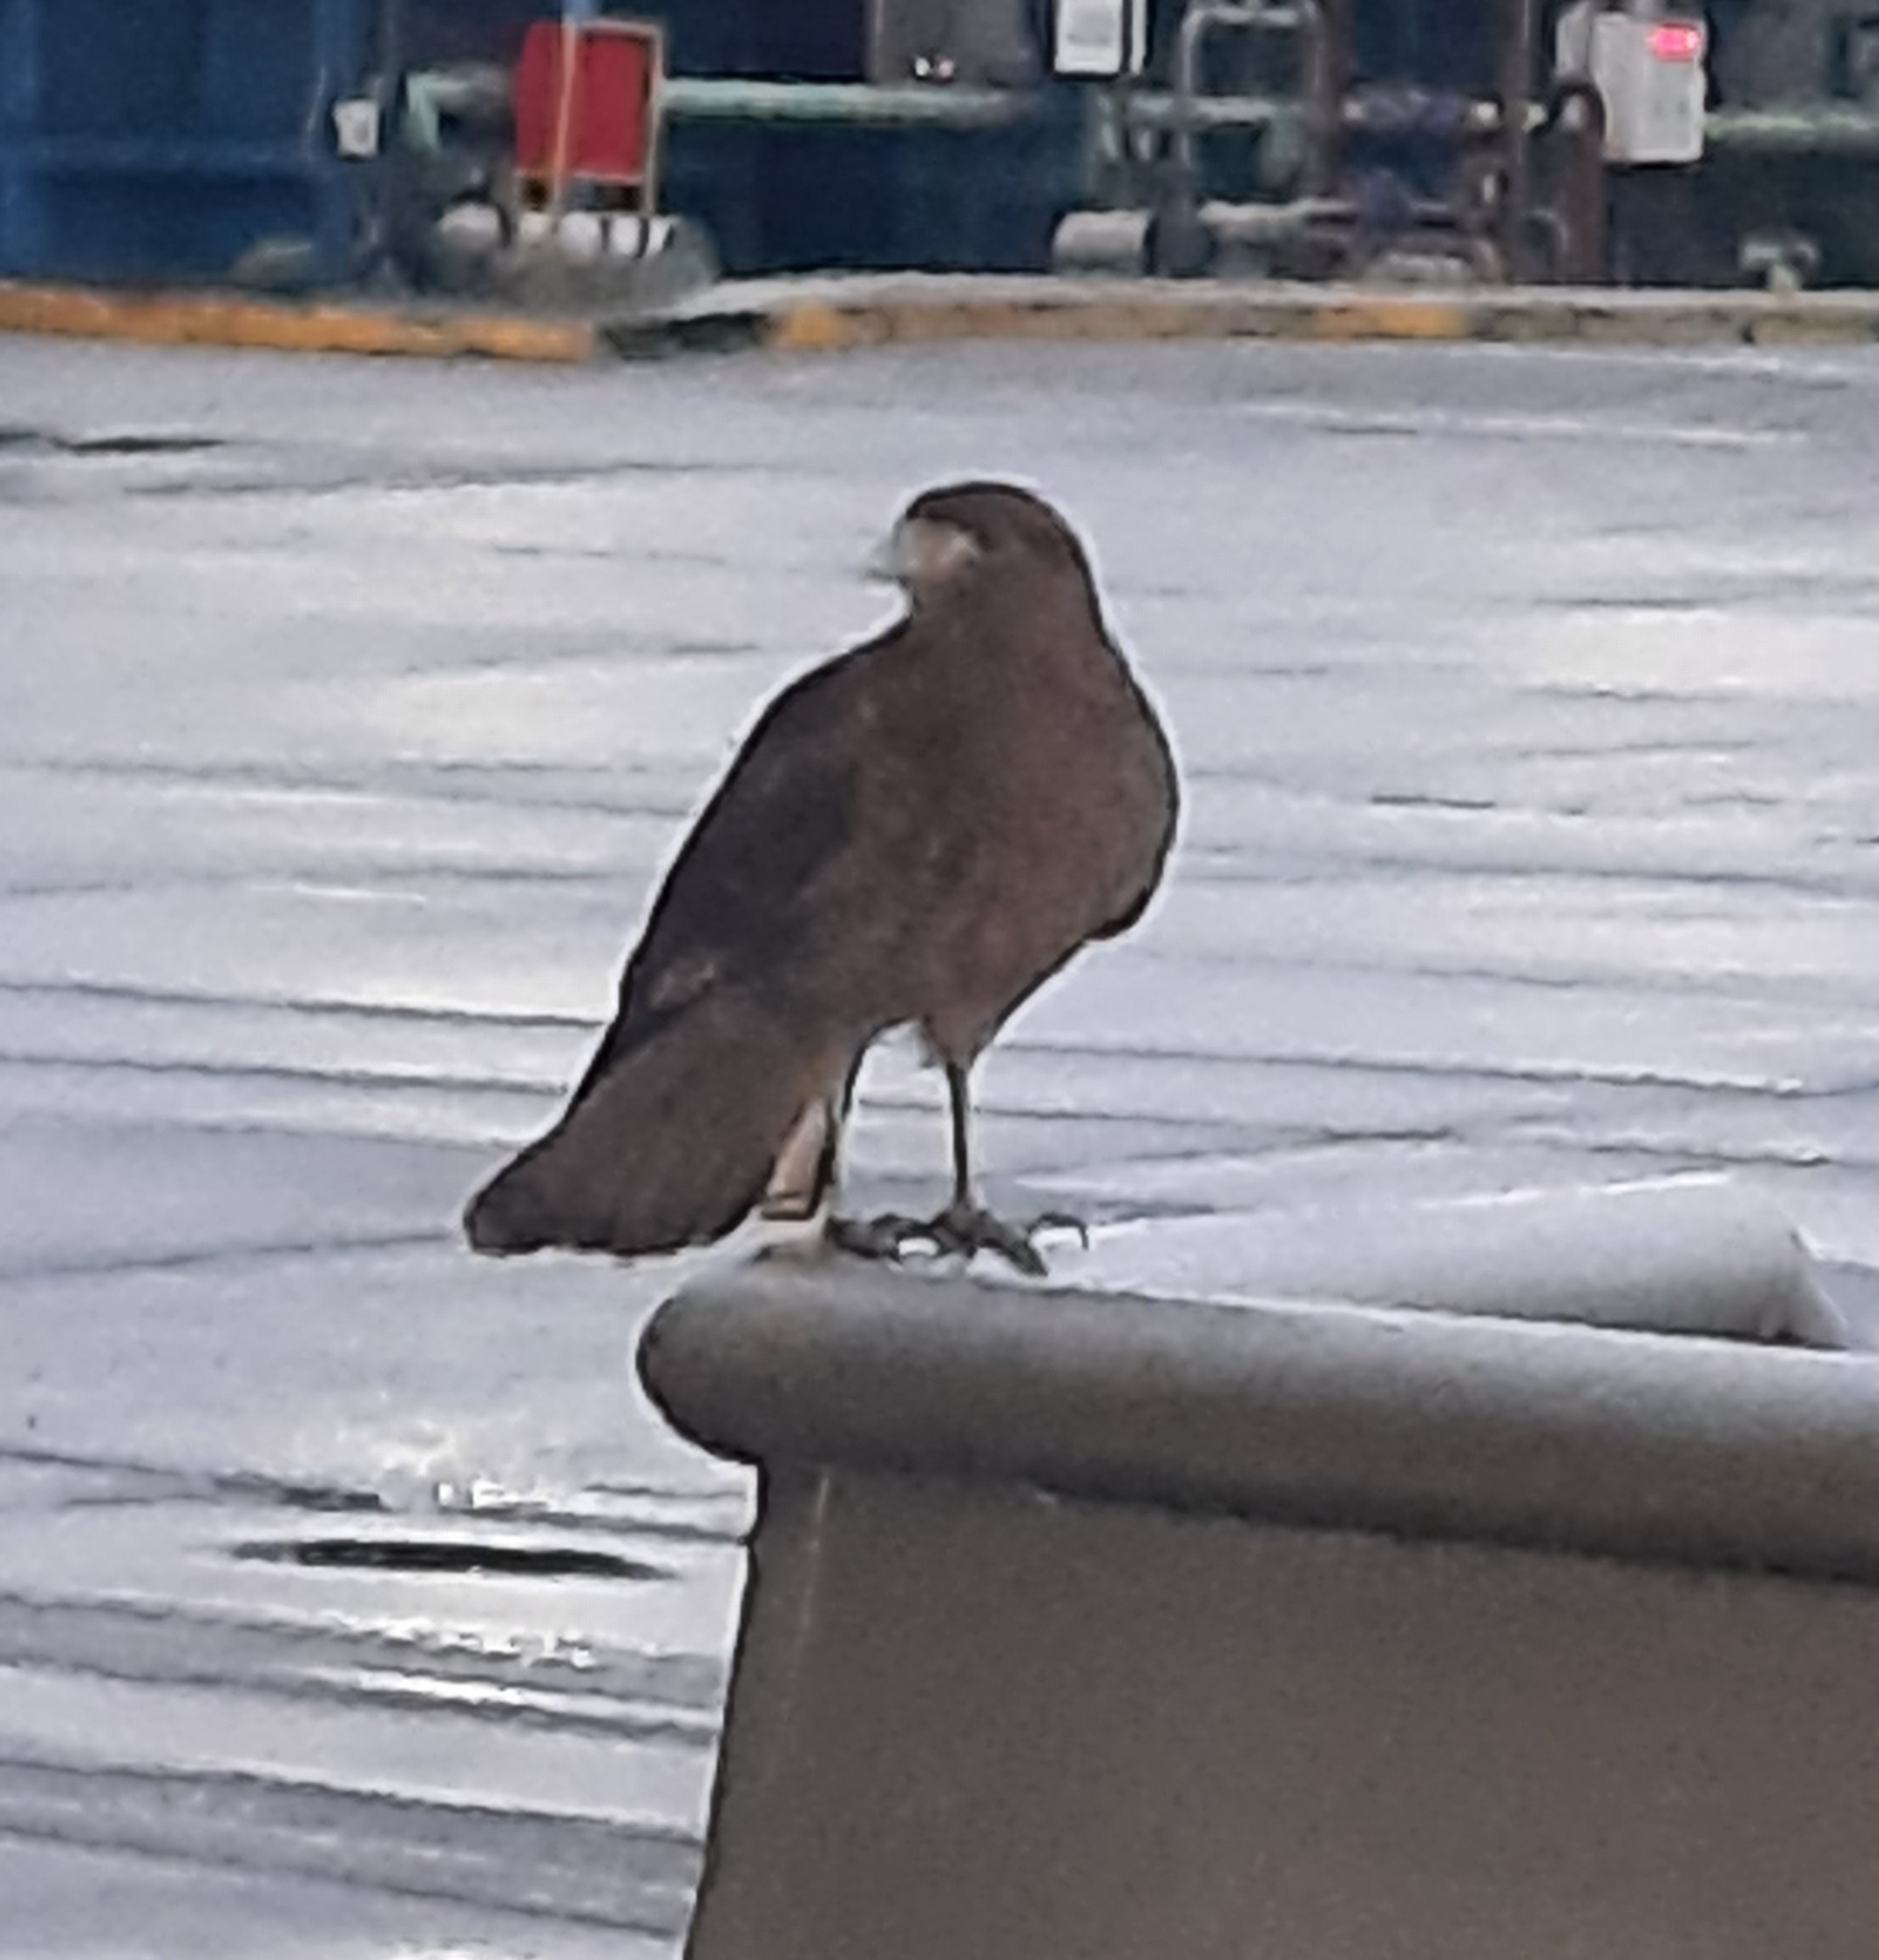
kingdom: Animalia
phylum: Chordata
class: Aves
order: Falconiformes
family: Falconidae
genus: Daptrius
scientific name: Daptrius
